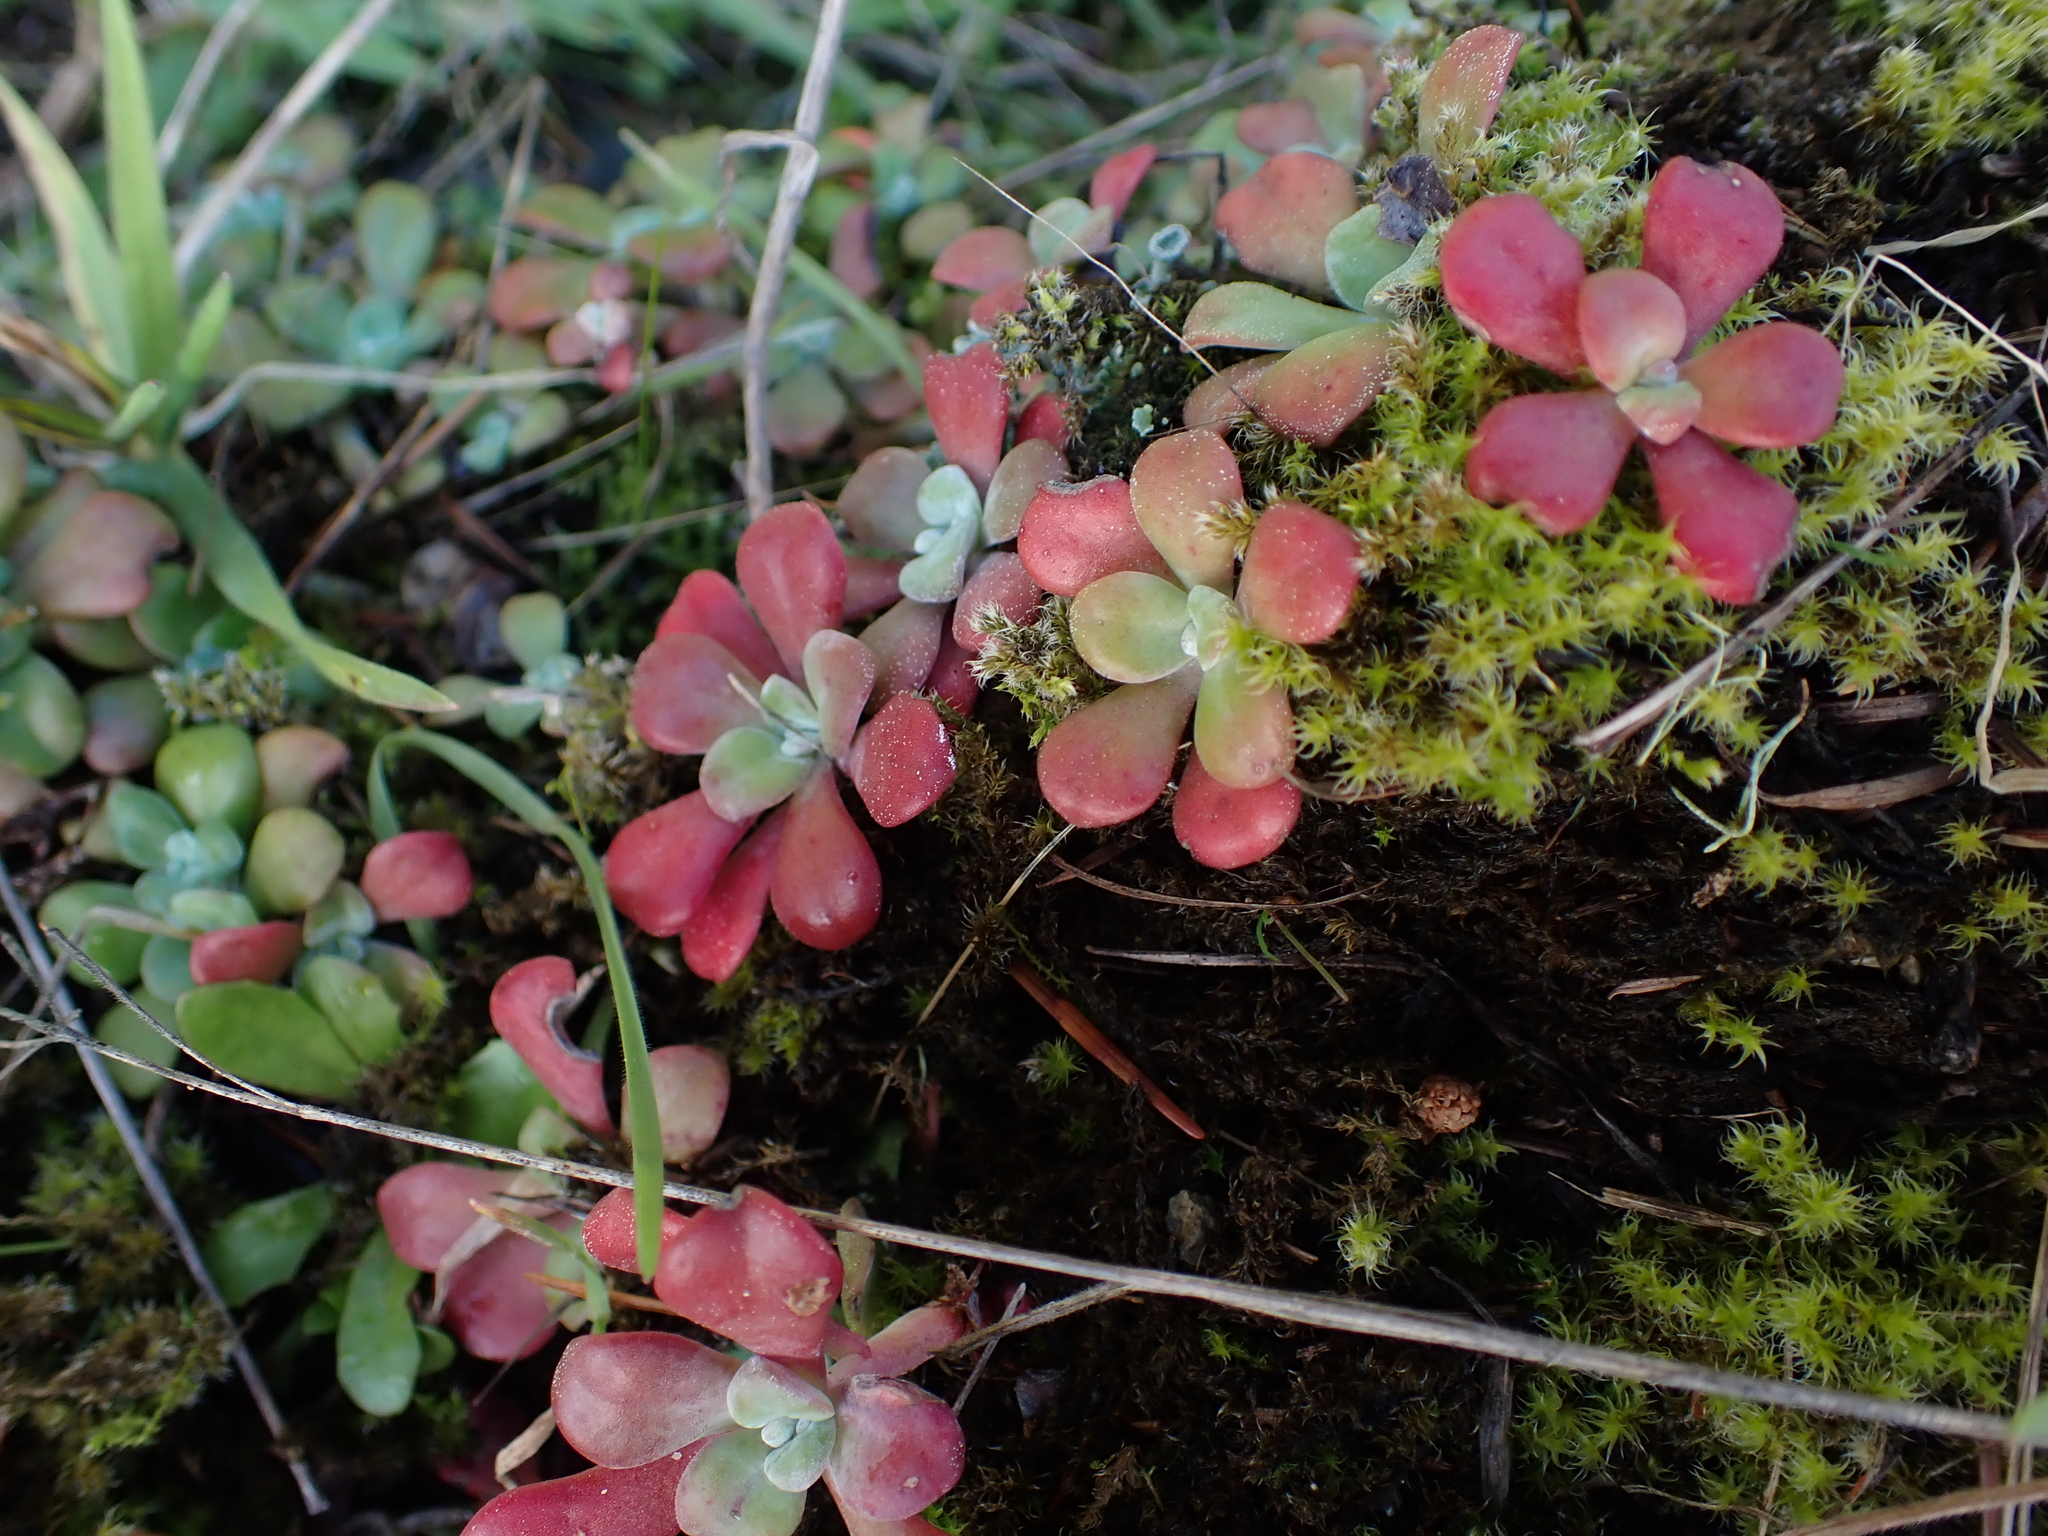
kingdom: Plantae
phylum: Tracheophyta
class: Magnoliopsida
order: Saxifragales
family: Crassulaceae
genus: Sedum
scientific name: Sedum spathulifolium
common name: Colorado stonecrop
